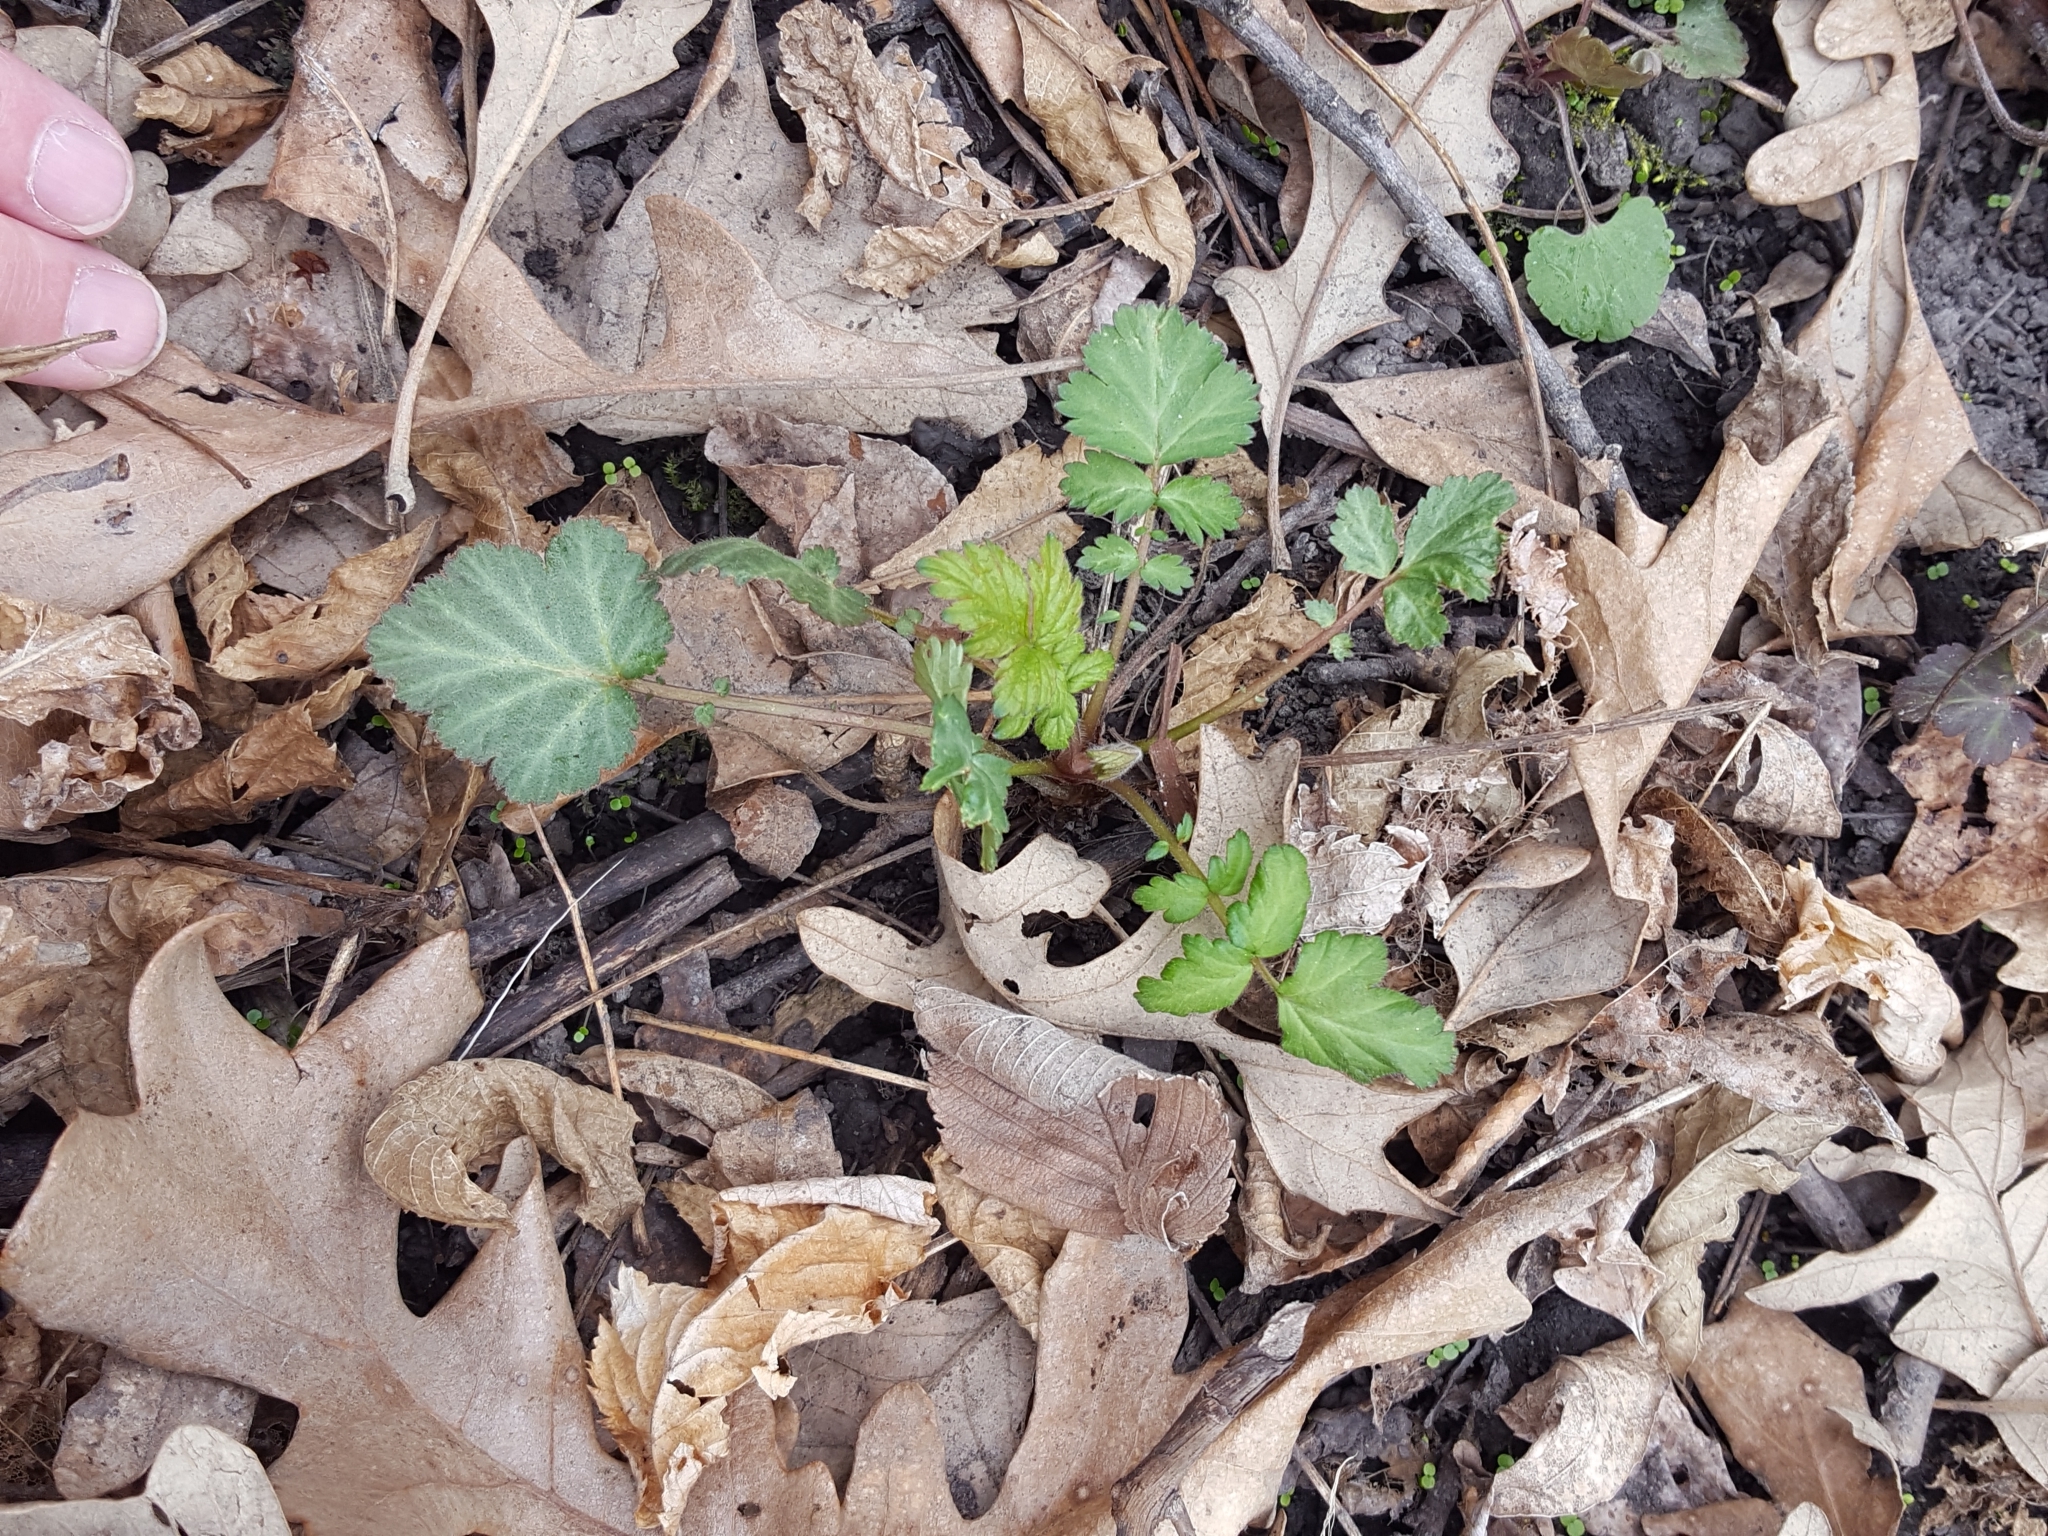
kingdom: Plantae
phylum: Tracheophyta
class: Magnoliopsida
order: Rosales
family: Rosaceae
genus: Geum
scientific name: Geum canadense
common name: White avens
